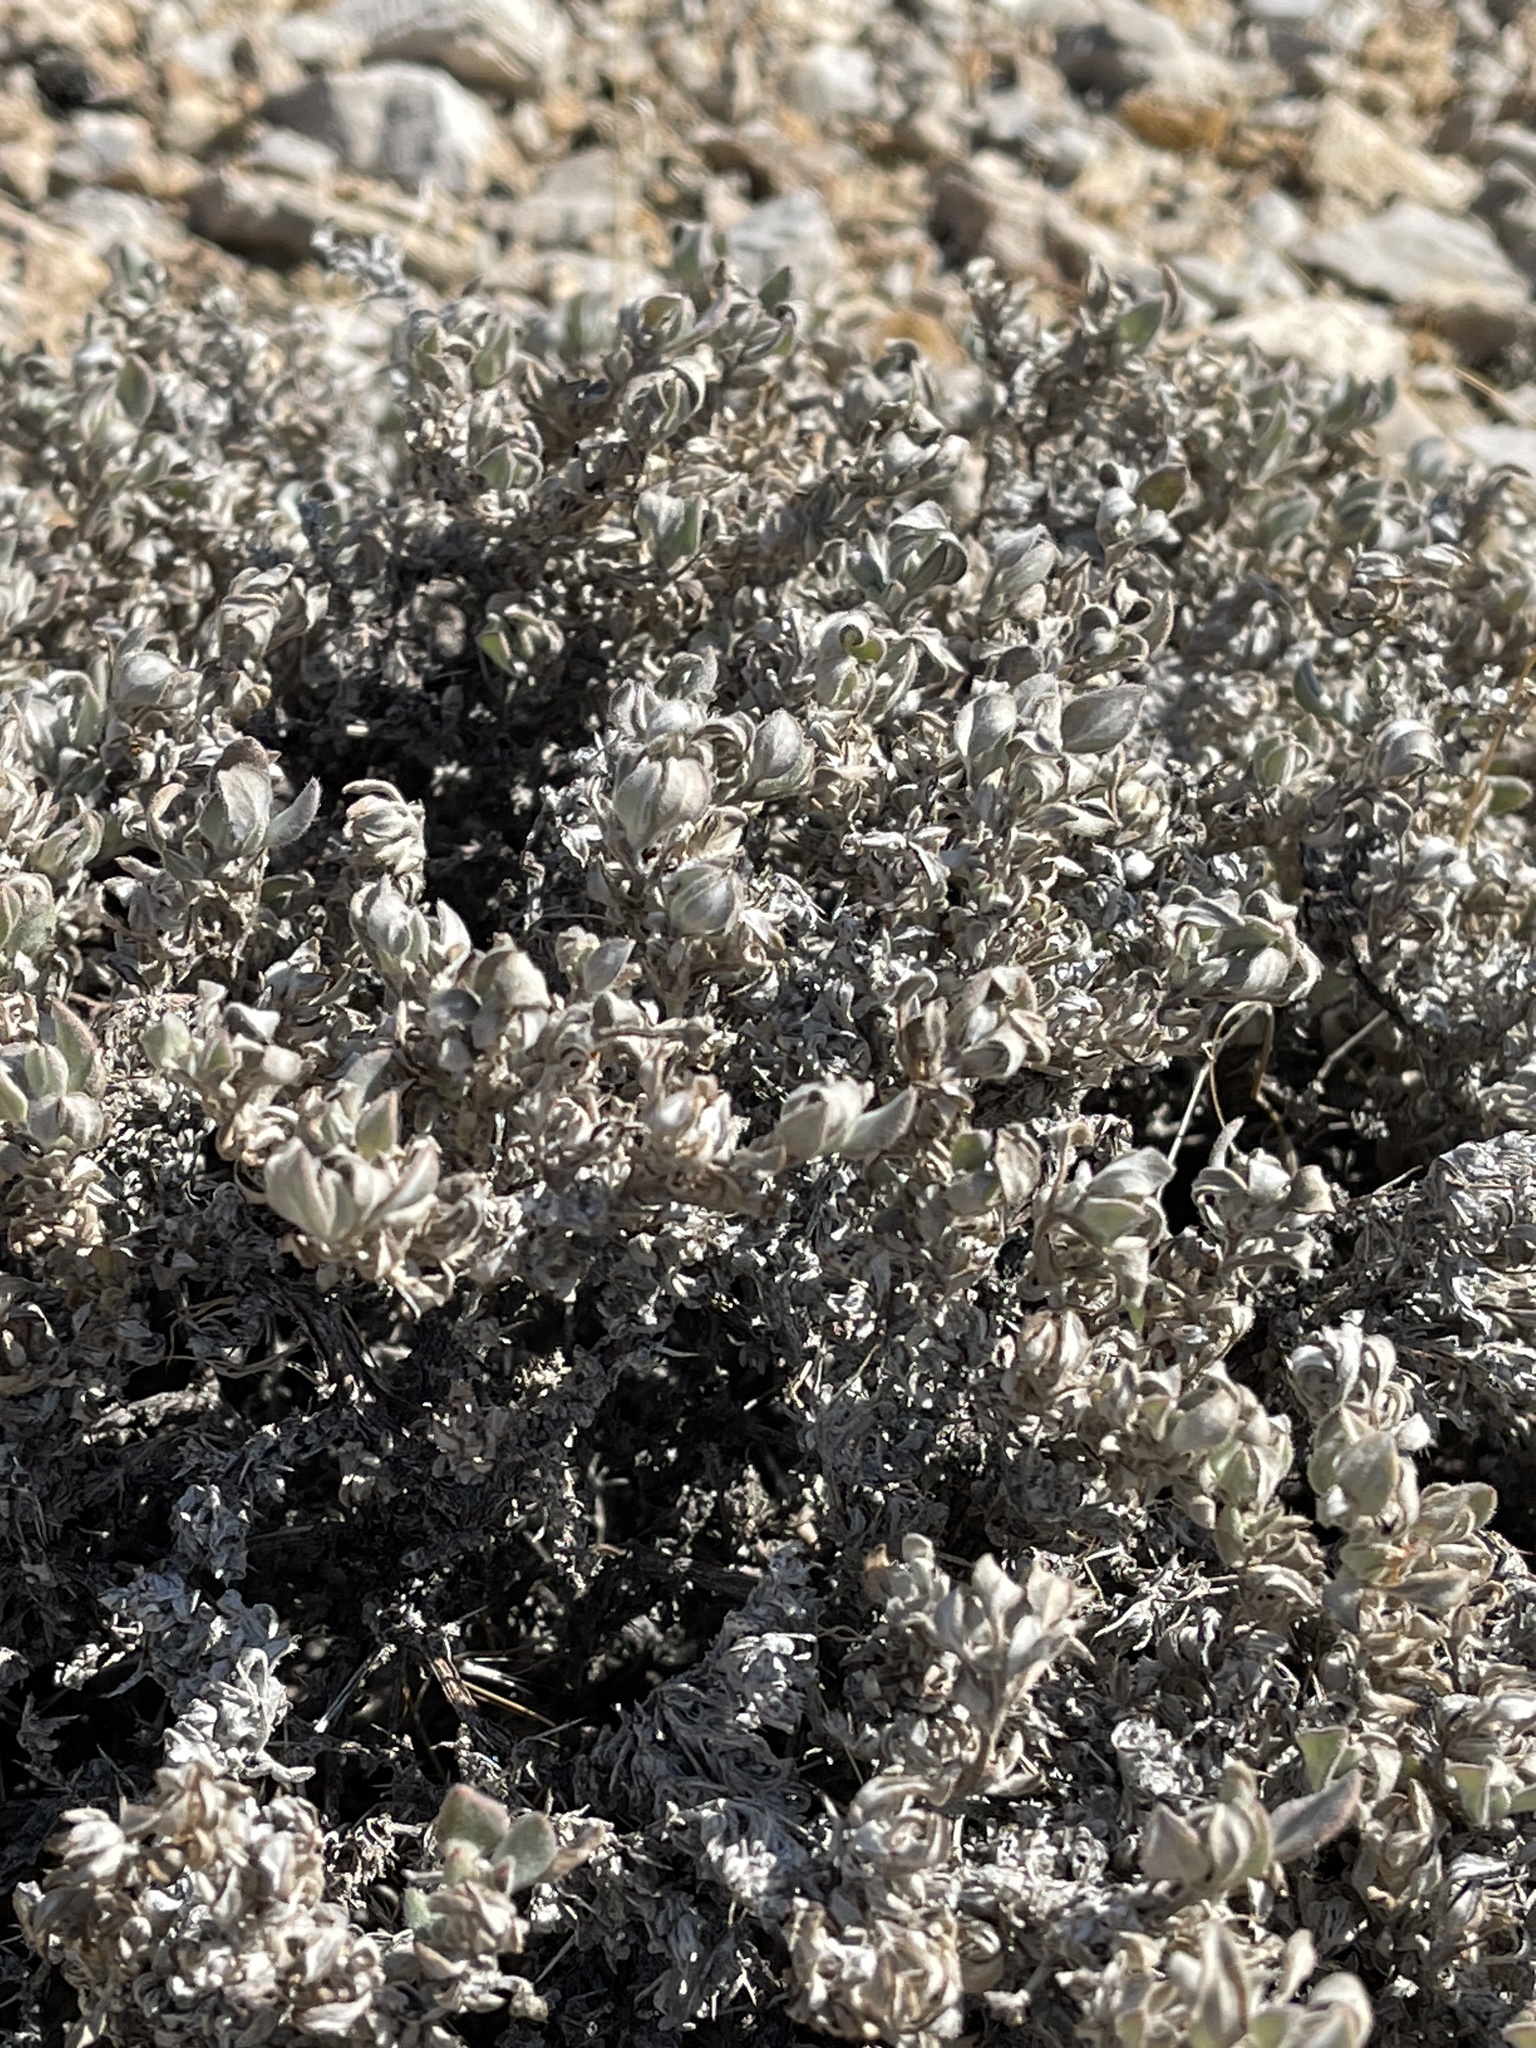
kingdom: Plantae
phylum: Tracheophyta
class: Magnoliopsida
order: Boraginales
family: Ehretiaceae
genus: Tiquilia
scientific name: Tiquilia canescens
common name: Hairy tiquilia
